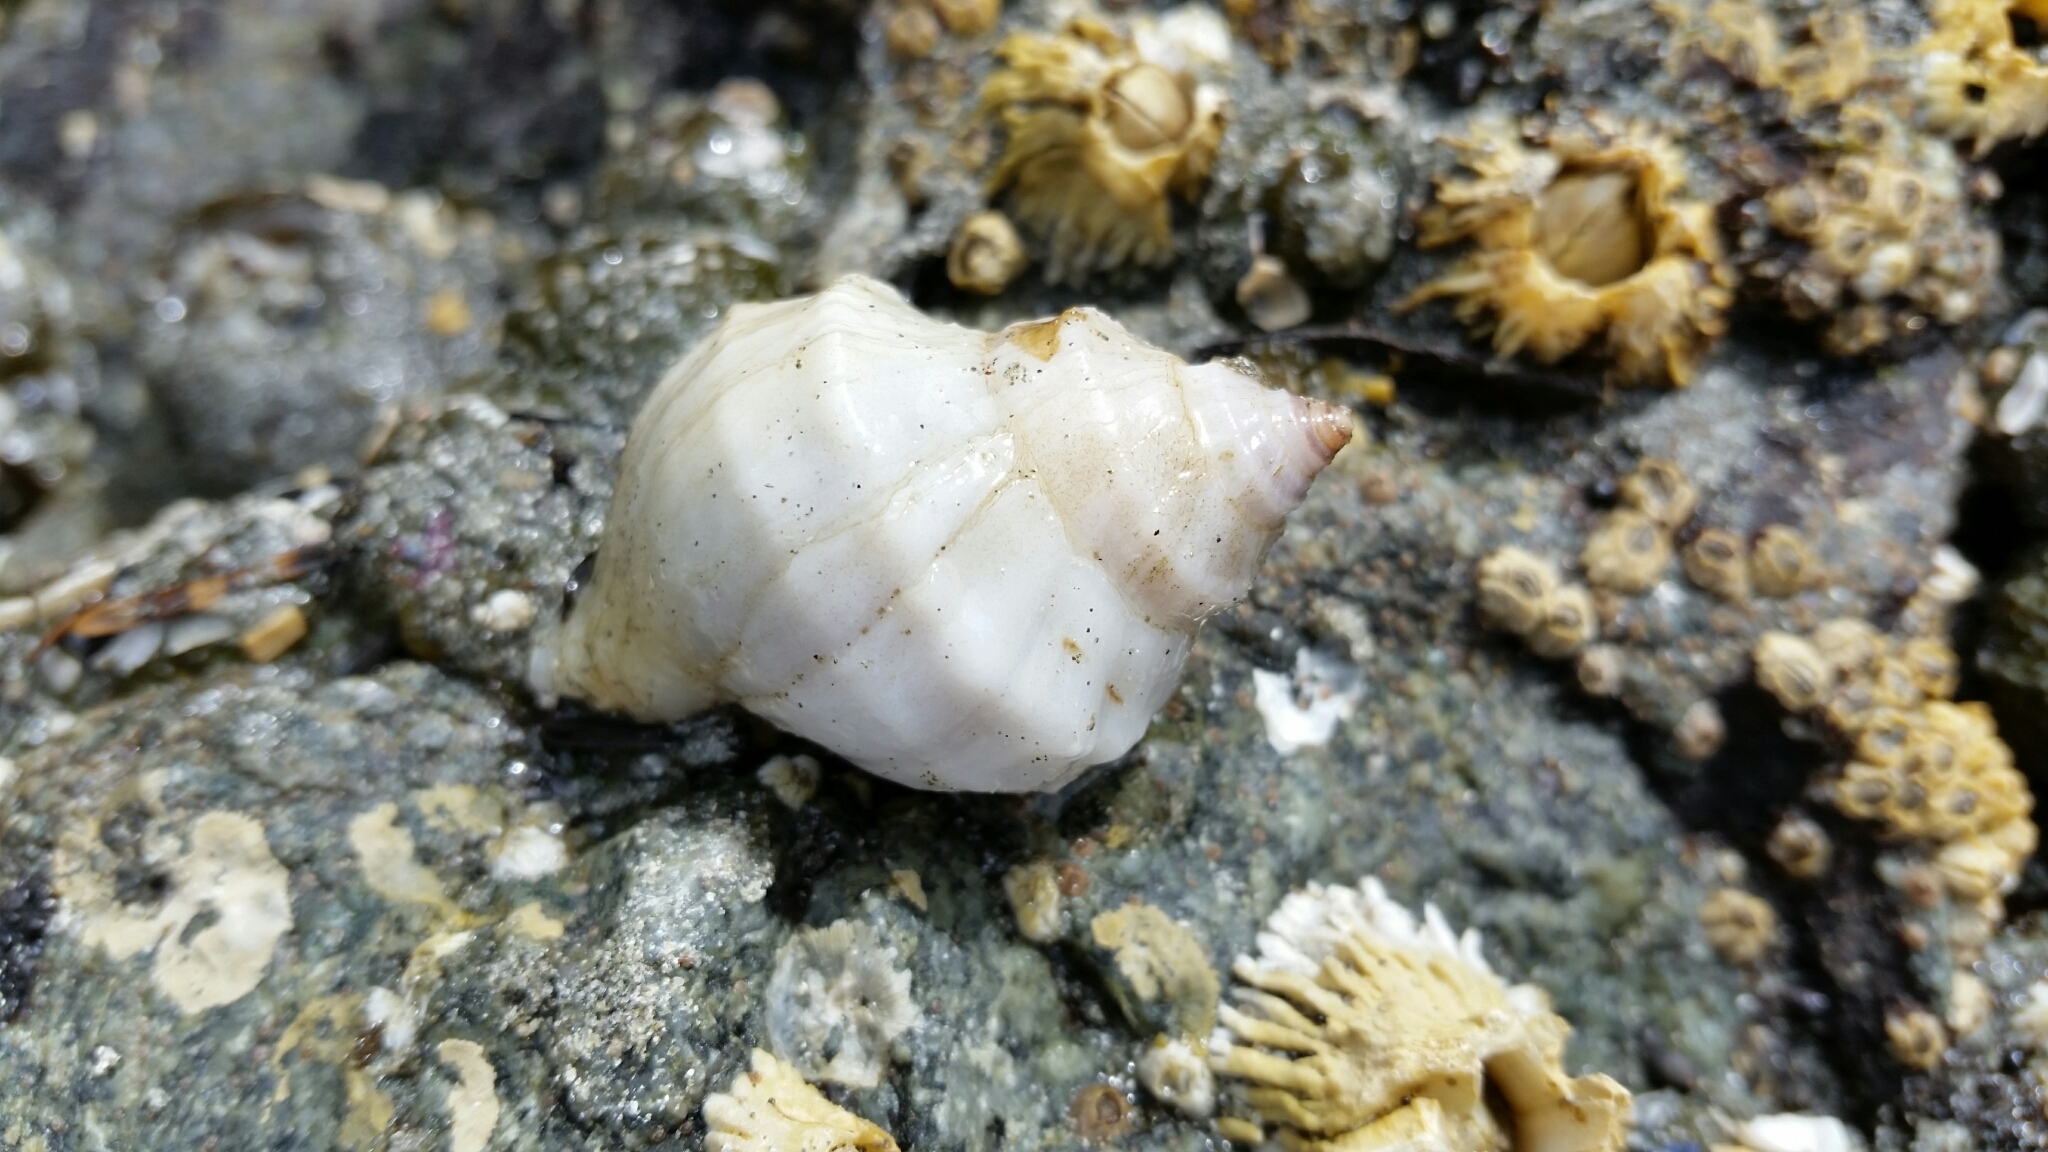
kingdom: Animalia
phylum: Mollusca
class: Gastropoda
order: Neogastropoda
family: Muricidae
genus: Nucella
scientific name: Nucella lamellosa
